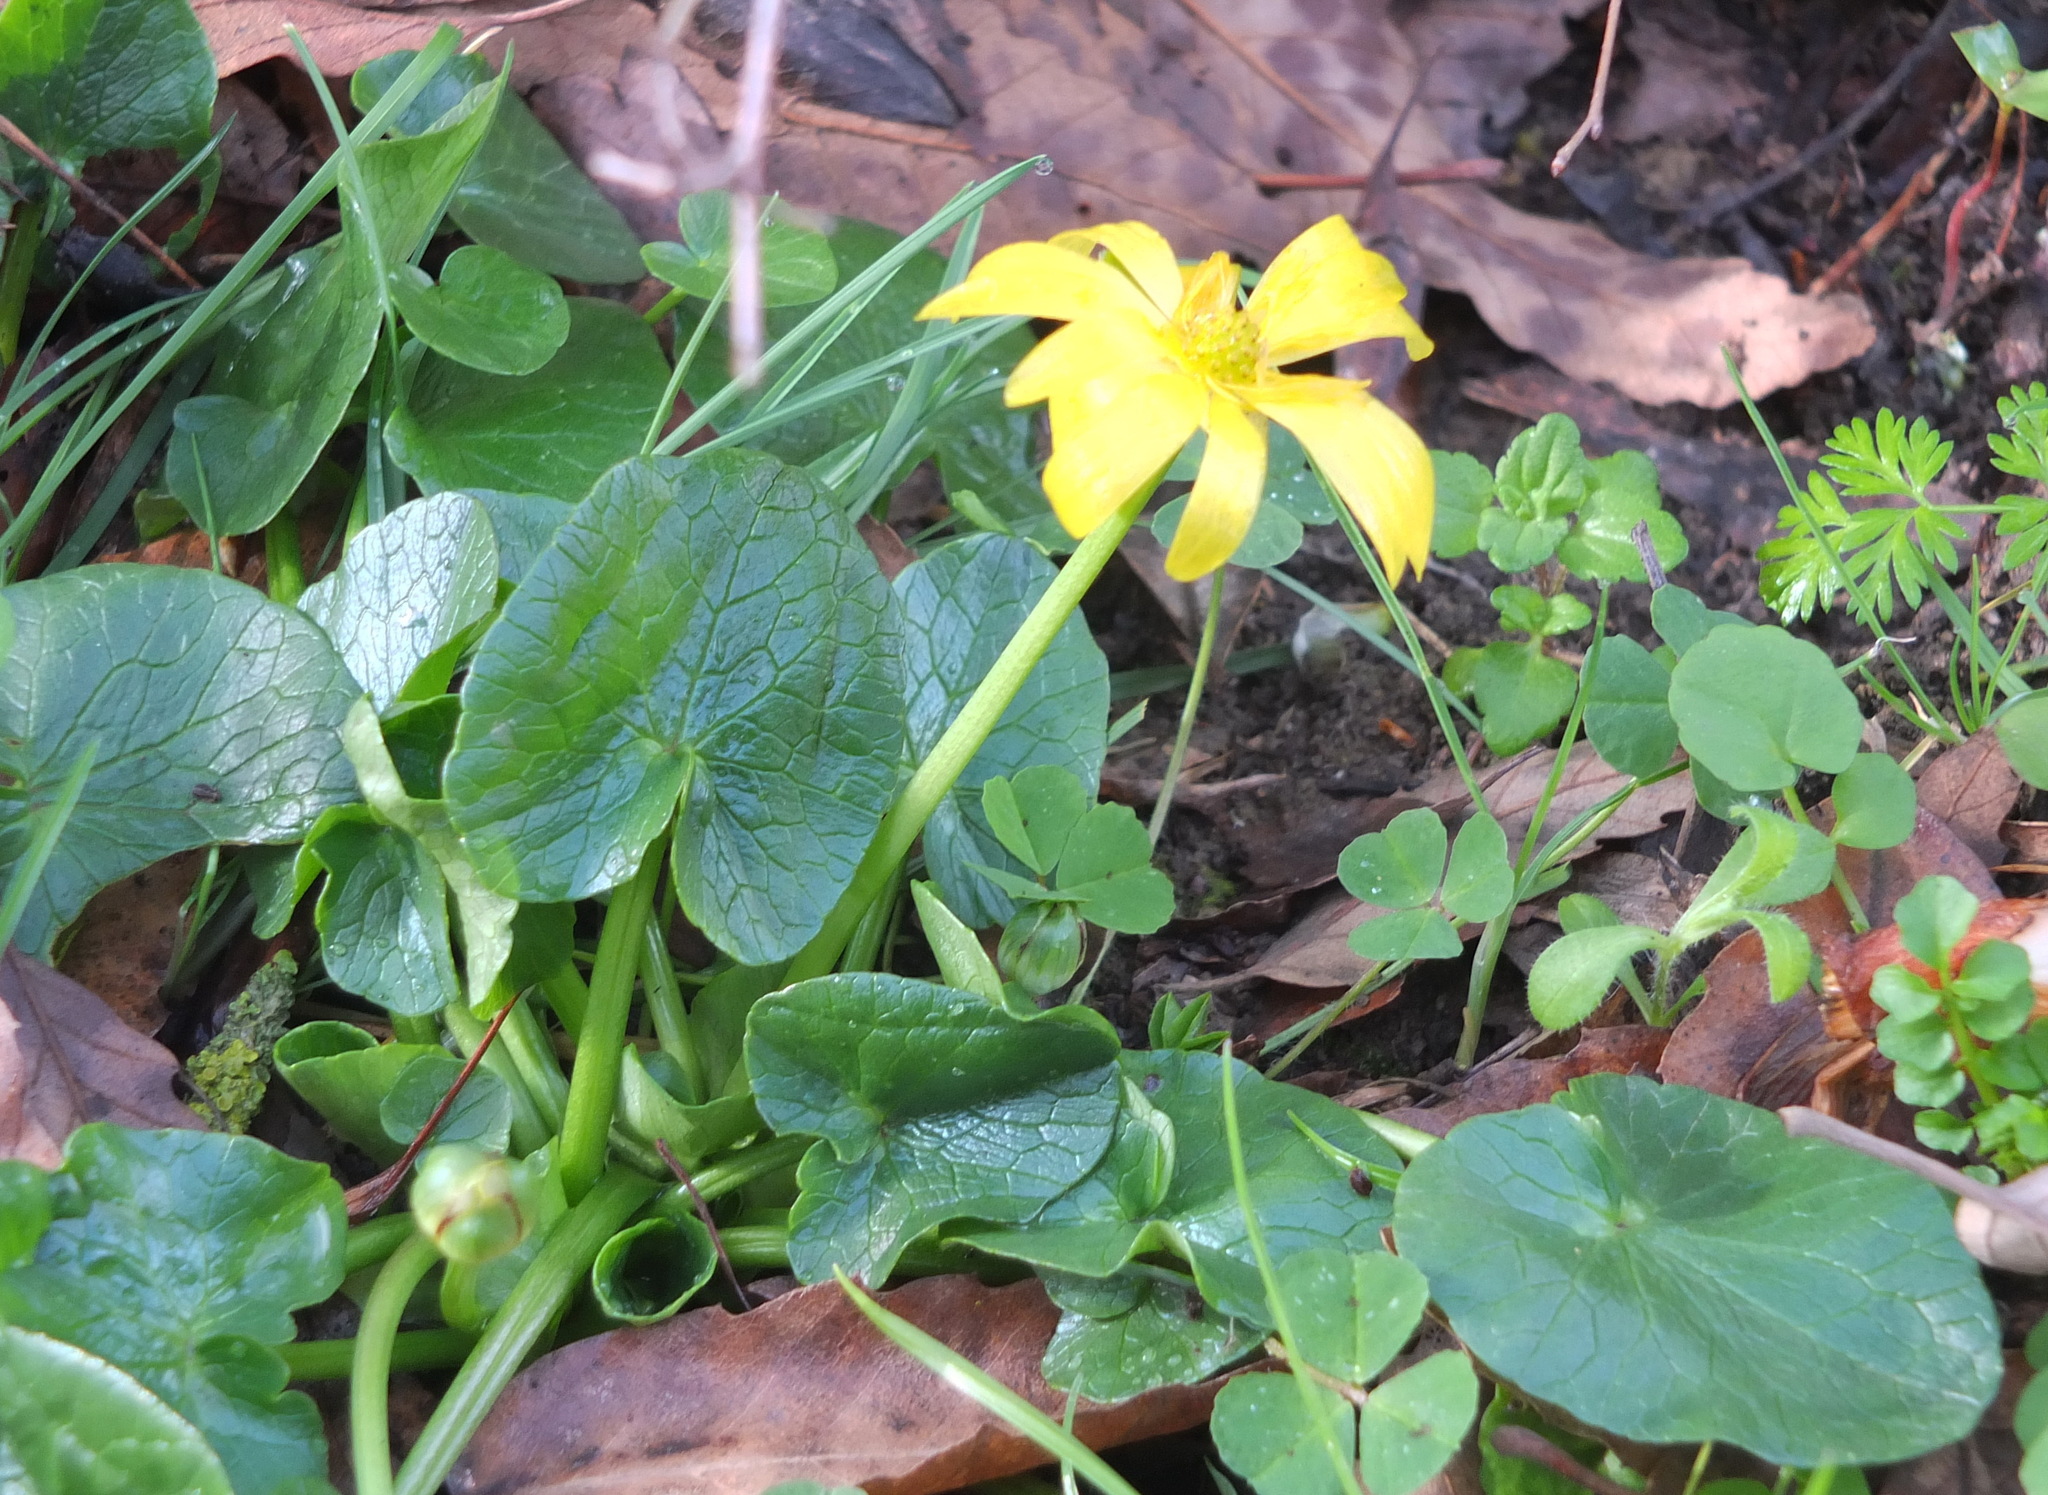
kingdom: Plantae
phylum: Tracheophyta
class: Magnoliopsida
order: Ranunculales
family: Ranunculaceae
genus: Ficaria
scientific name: Ficaria verna
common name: Lesser celandine
